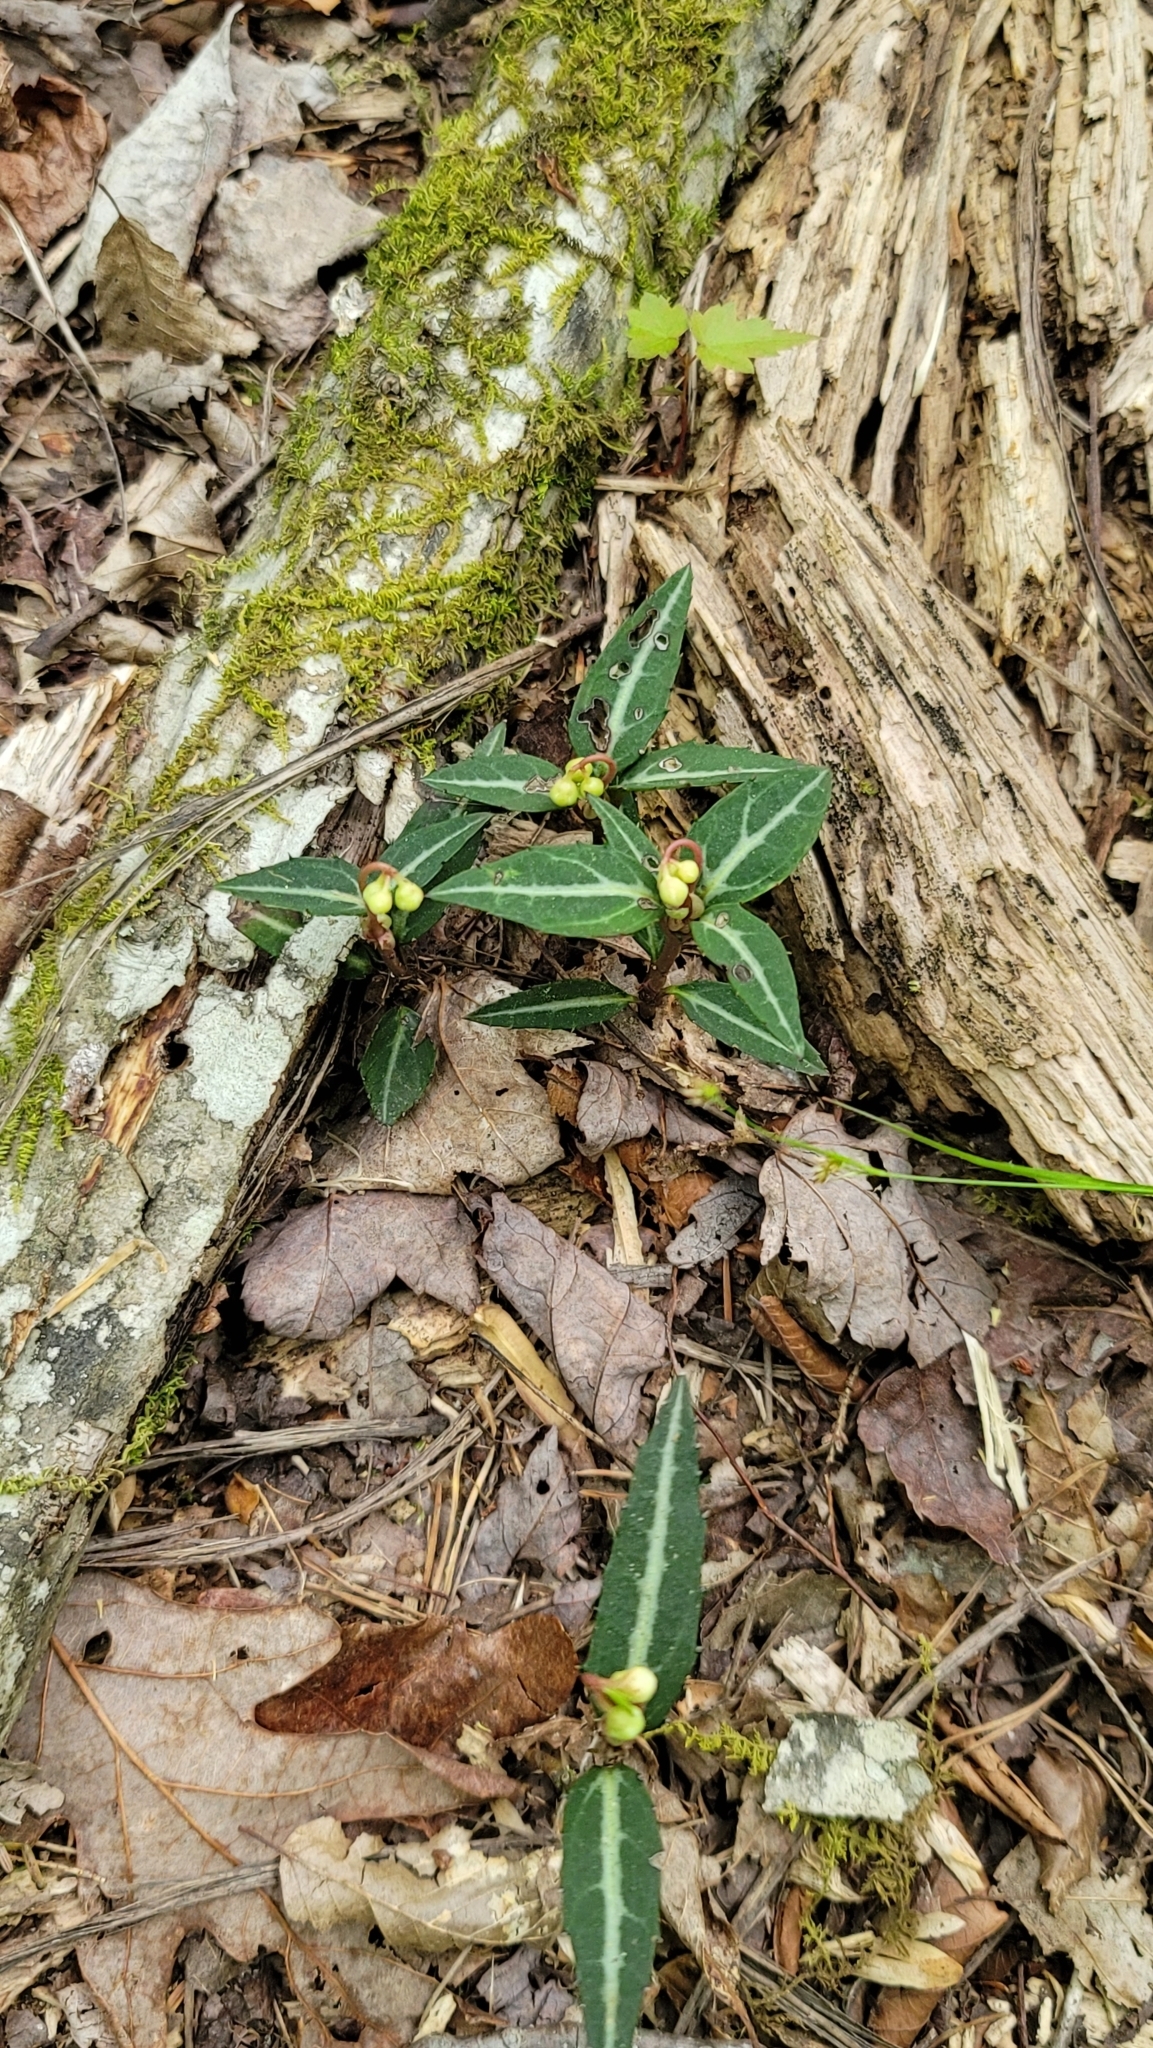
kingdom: Plantae
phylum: Tracheophyta
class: Magnoliopsida
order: Ericales
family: Ericaceae
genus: Chimaphila
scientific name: Chimaphila maculata
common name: Spotted pipsissewa
